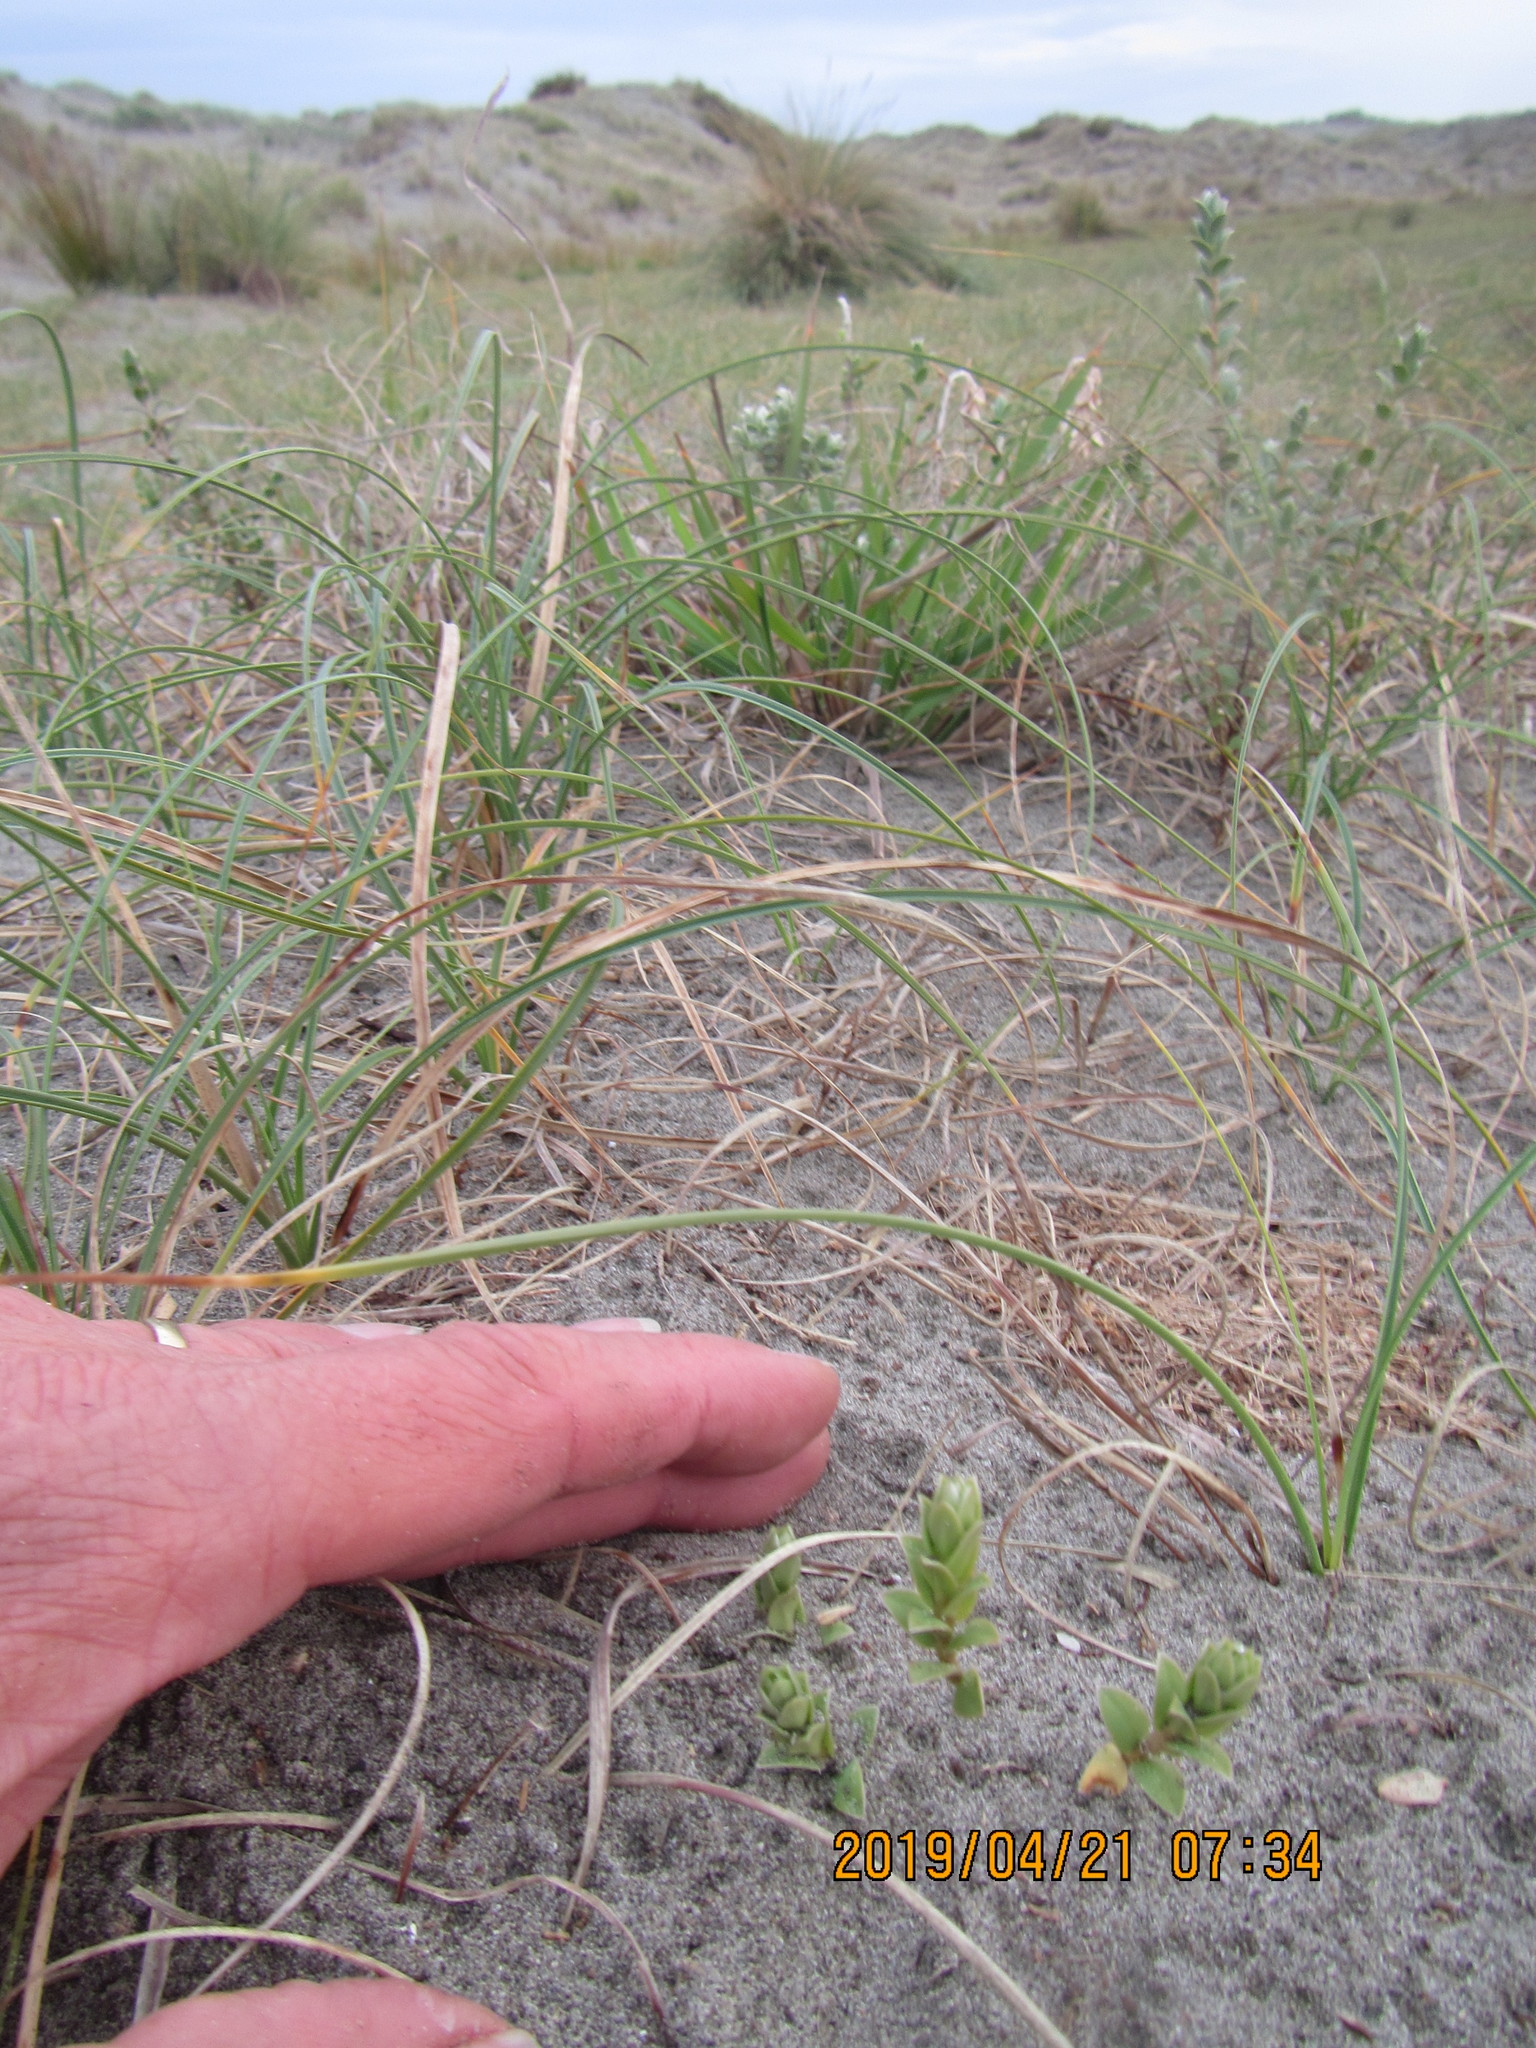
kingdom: Plantae
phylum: Tracheophyta
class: Magnoliopsida
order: Malvales
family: Thymelaeaceae
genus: Pimelea
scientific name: Pimelea villosa
